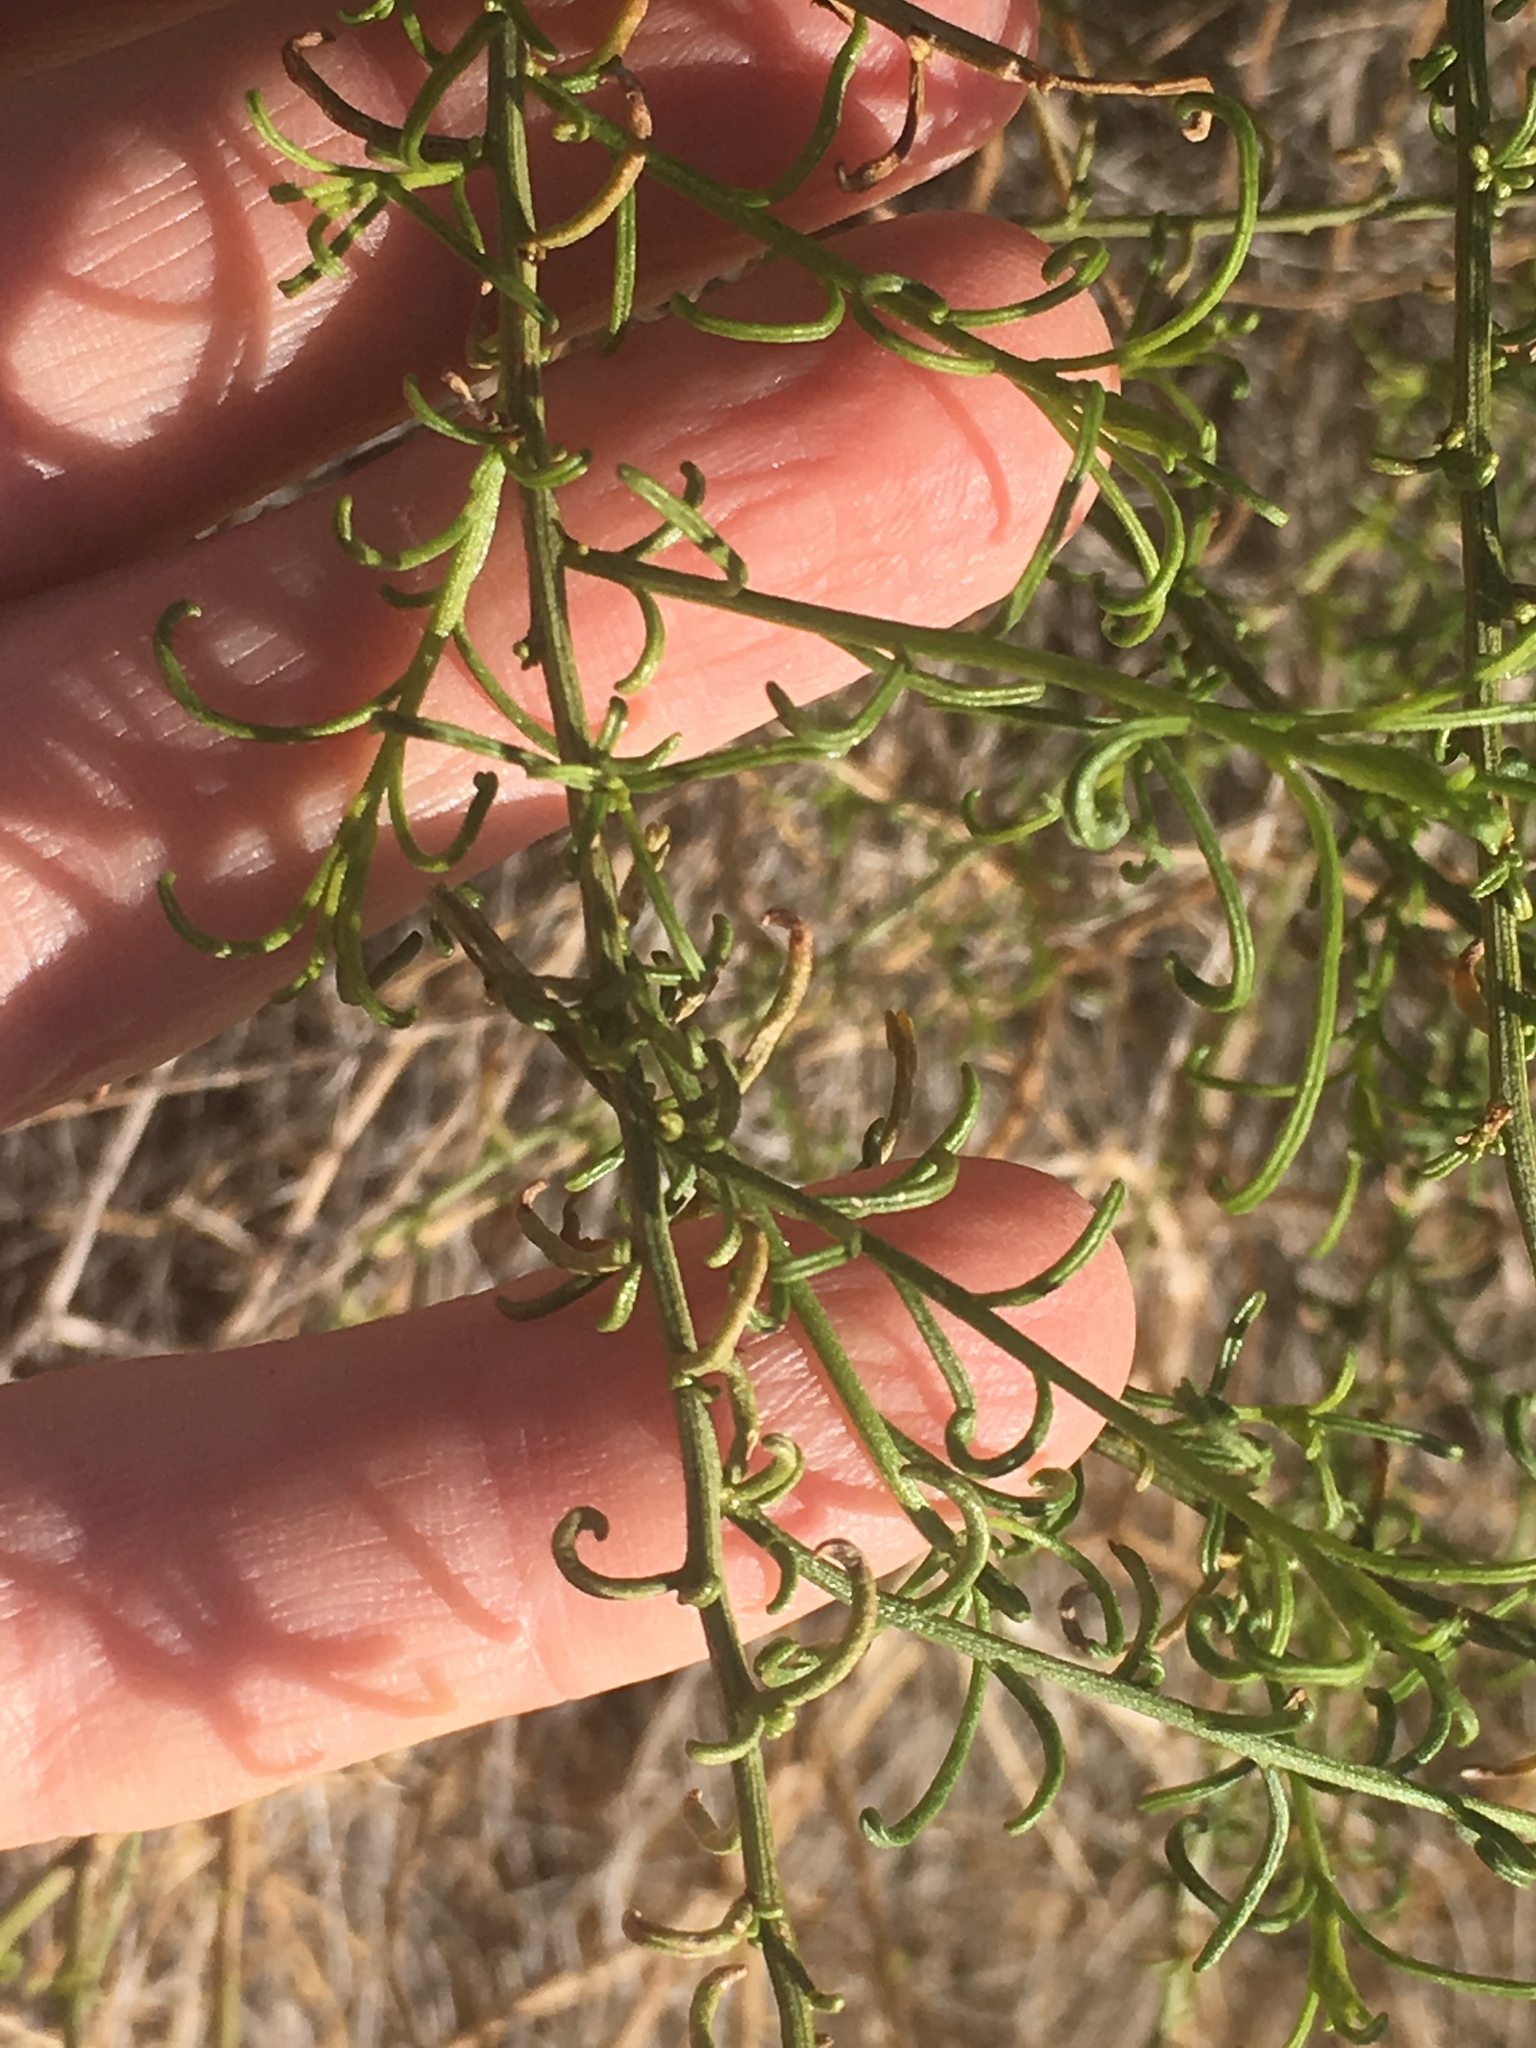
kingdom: Plantae
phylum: Tracheophyta
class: Magnoliopsida
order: Asterales
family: Asteraceae
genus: Ambrosia
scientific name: Ambrosia salsola
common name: Burrobrush
